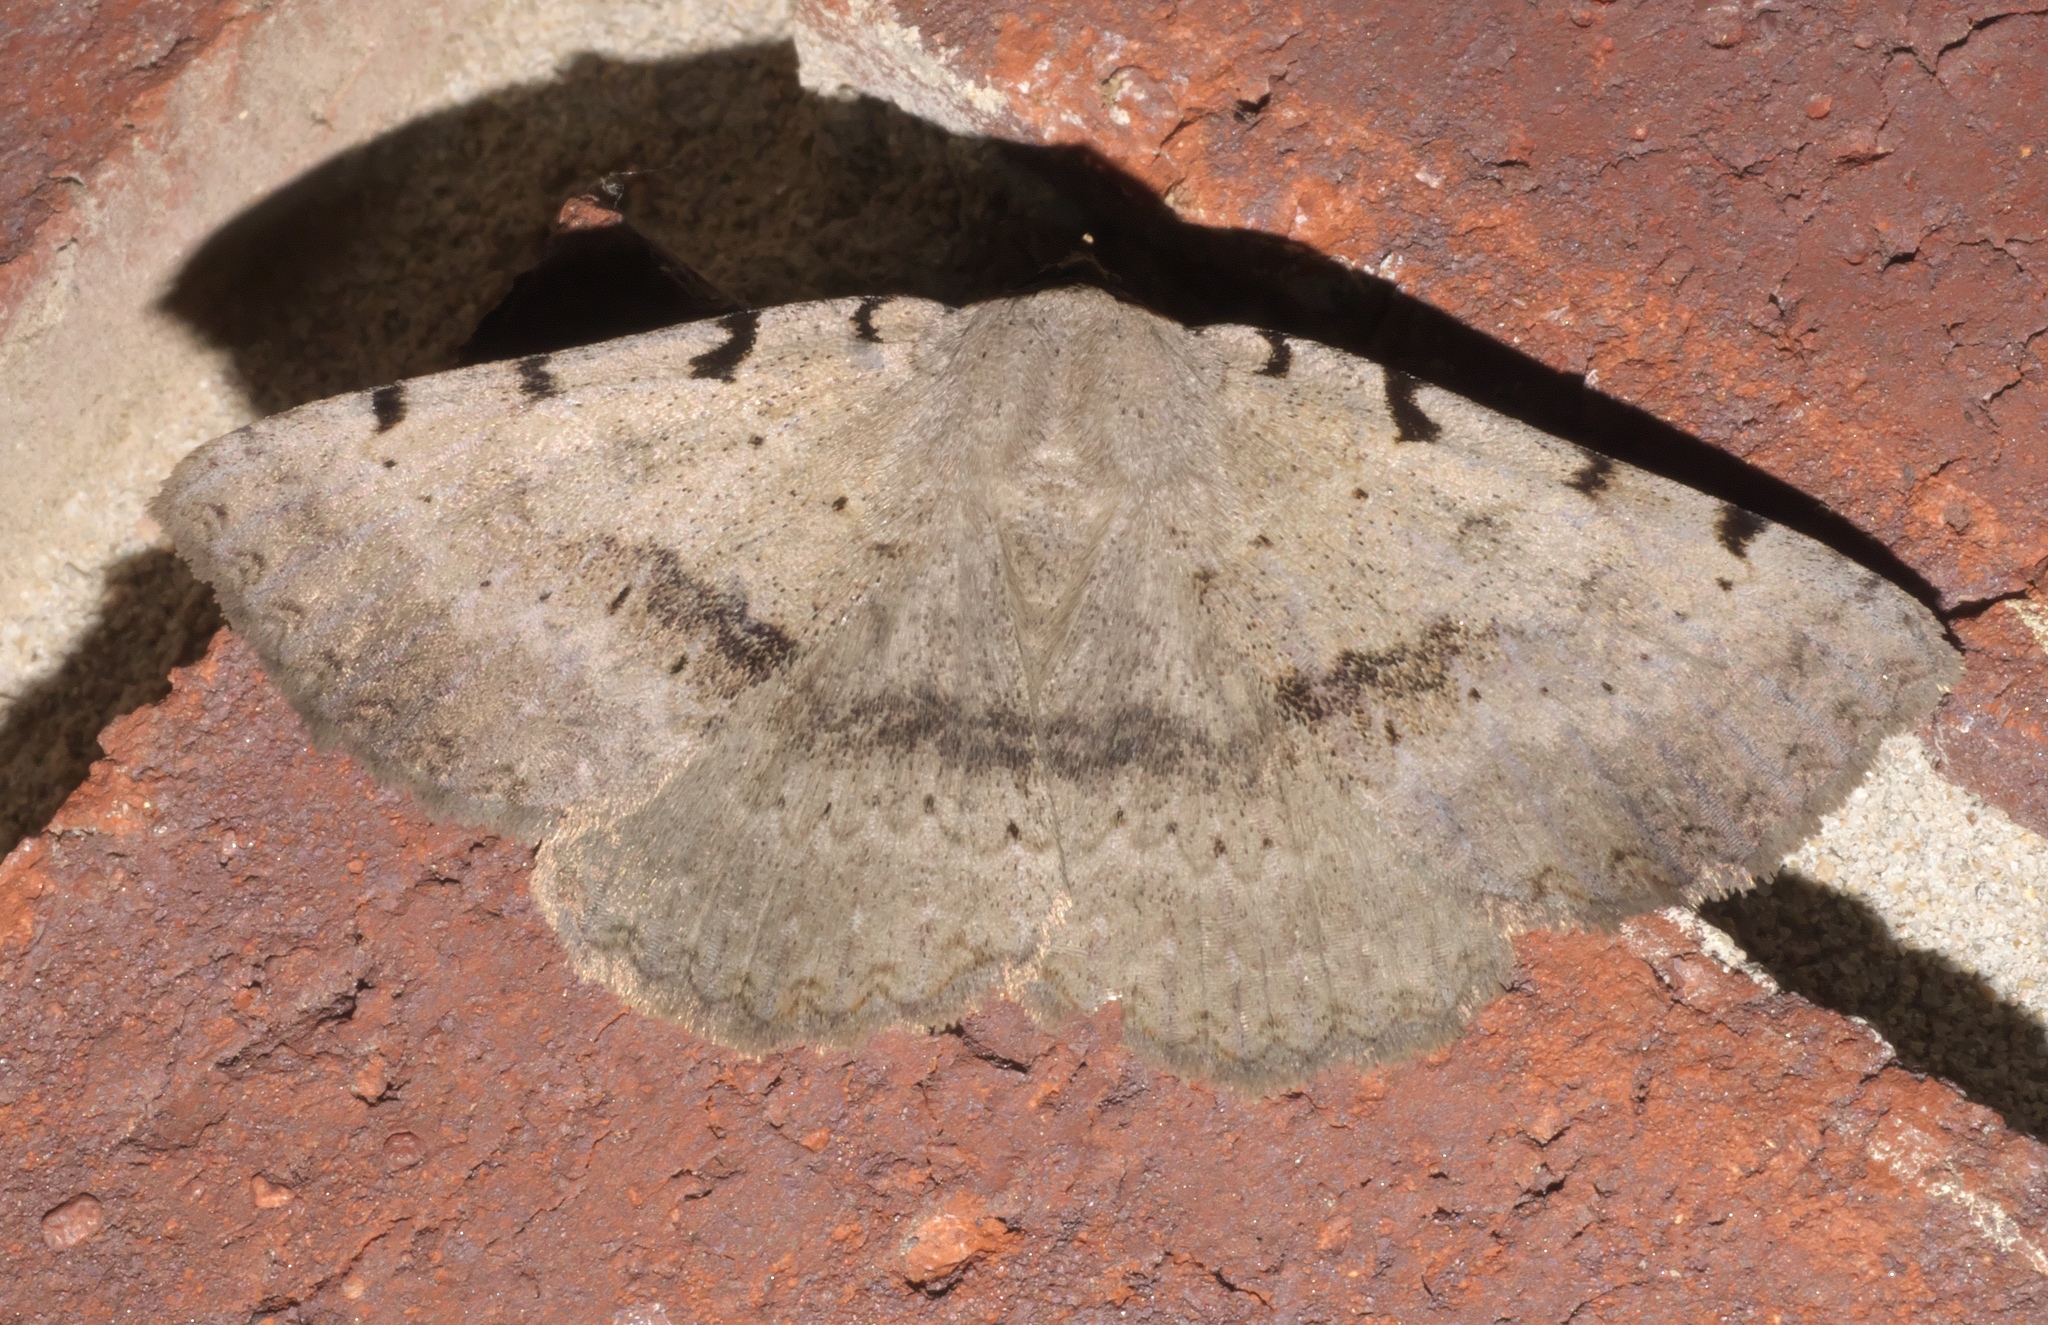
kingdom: Animalia
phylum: Arthropoda
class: Insecta
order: Lepidoptera
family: Erebidae
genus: Spiloloma
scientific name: Spiloloma lunilinea
